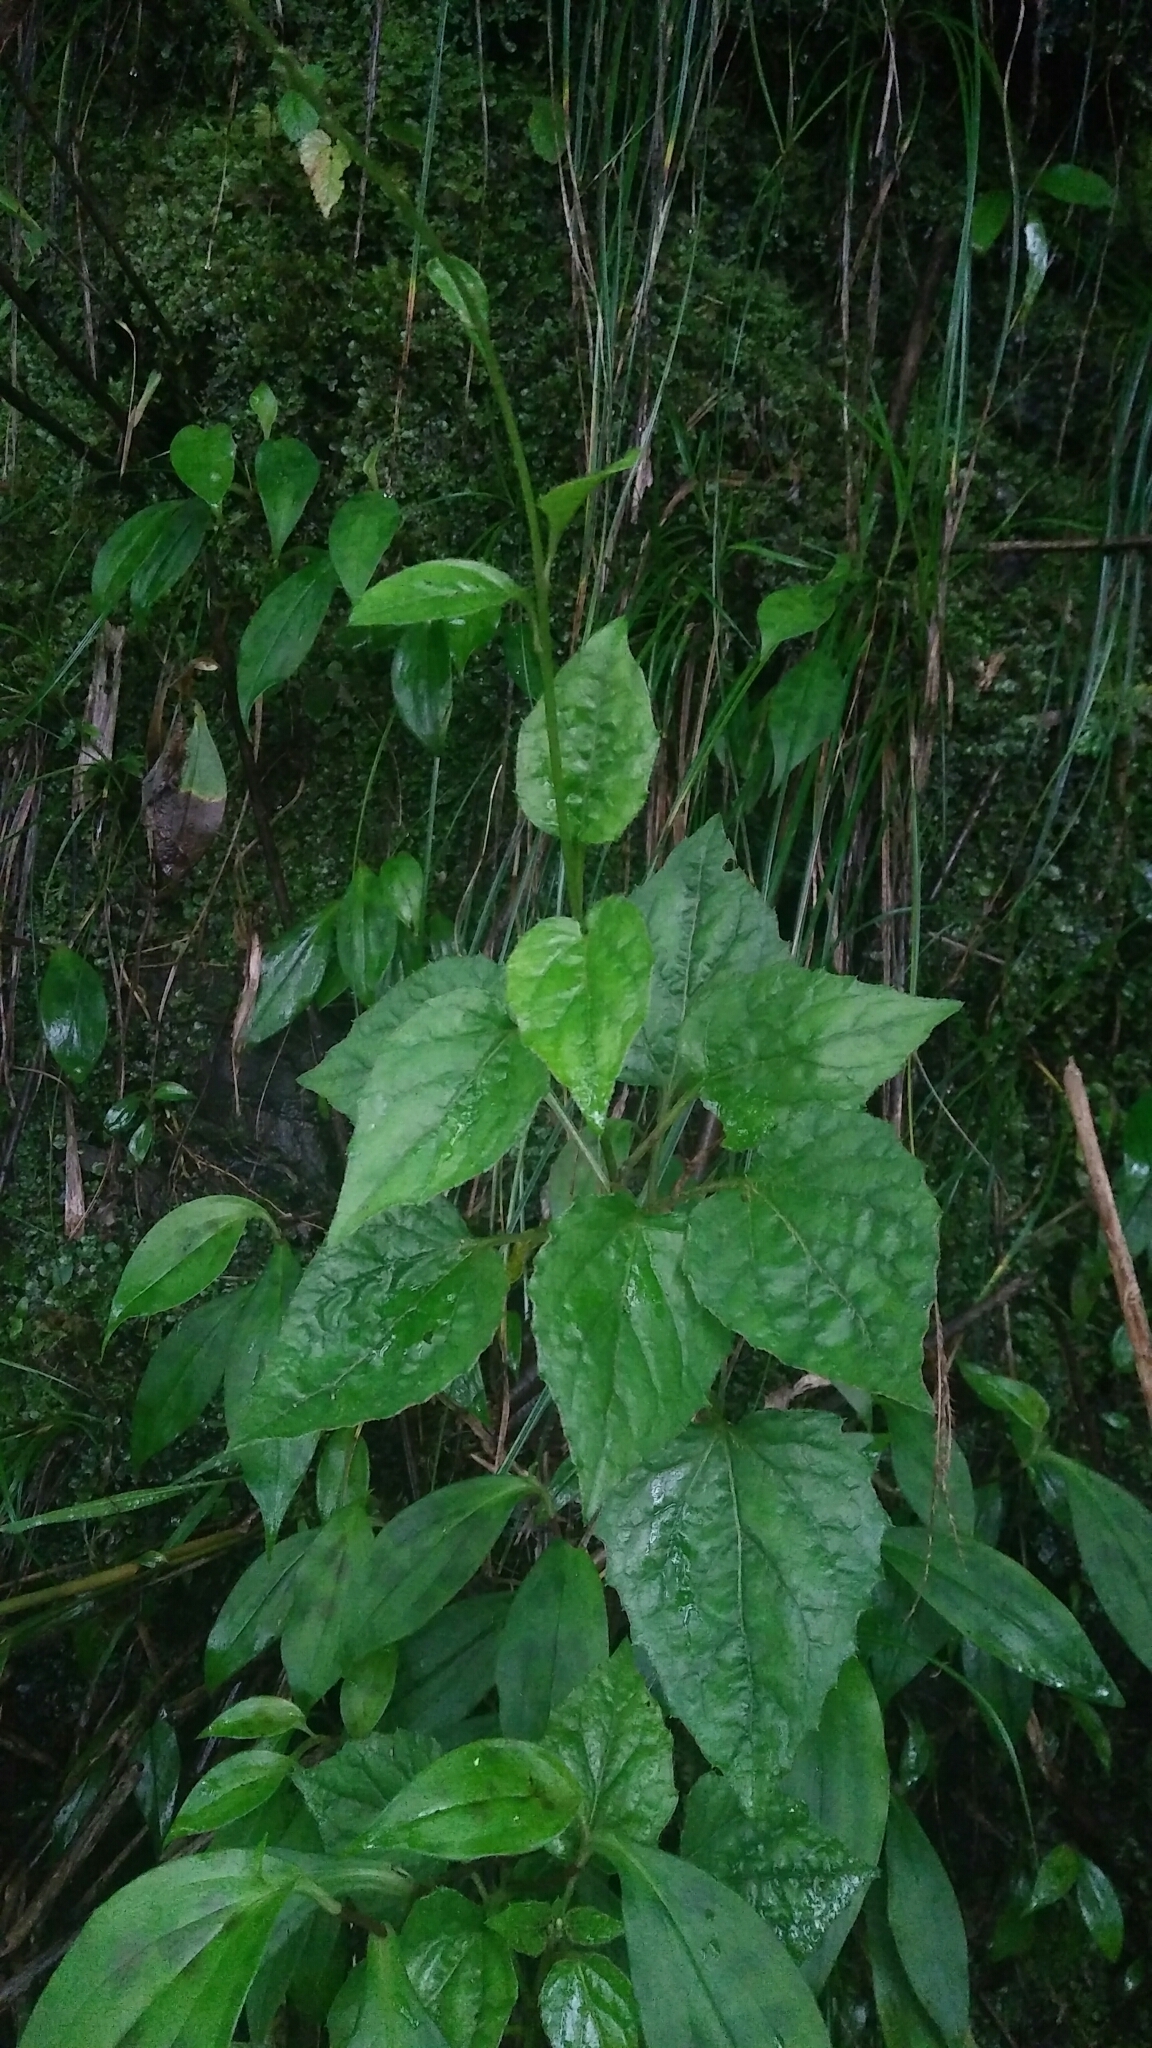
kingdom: Plantae
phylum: Tracheophyta
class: Magnoliopsida
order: Asterales
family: Asteraceae
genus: Ainsliaea
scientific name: Ainsliaea macroclinidioides
